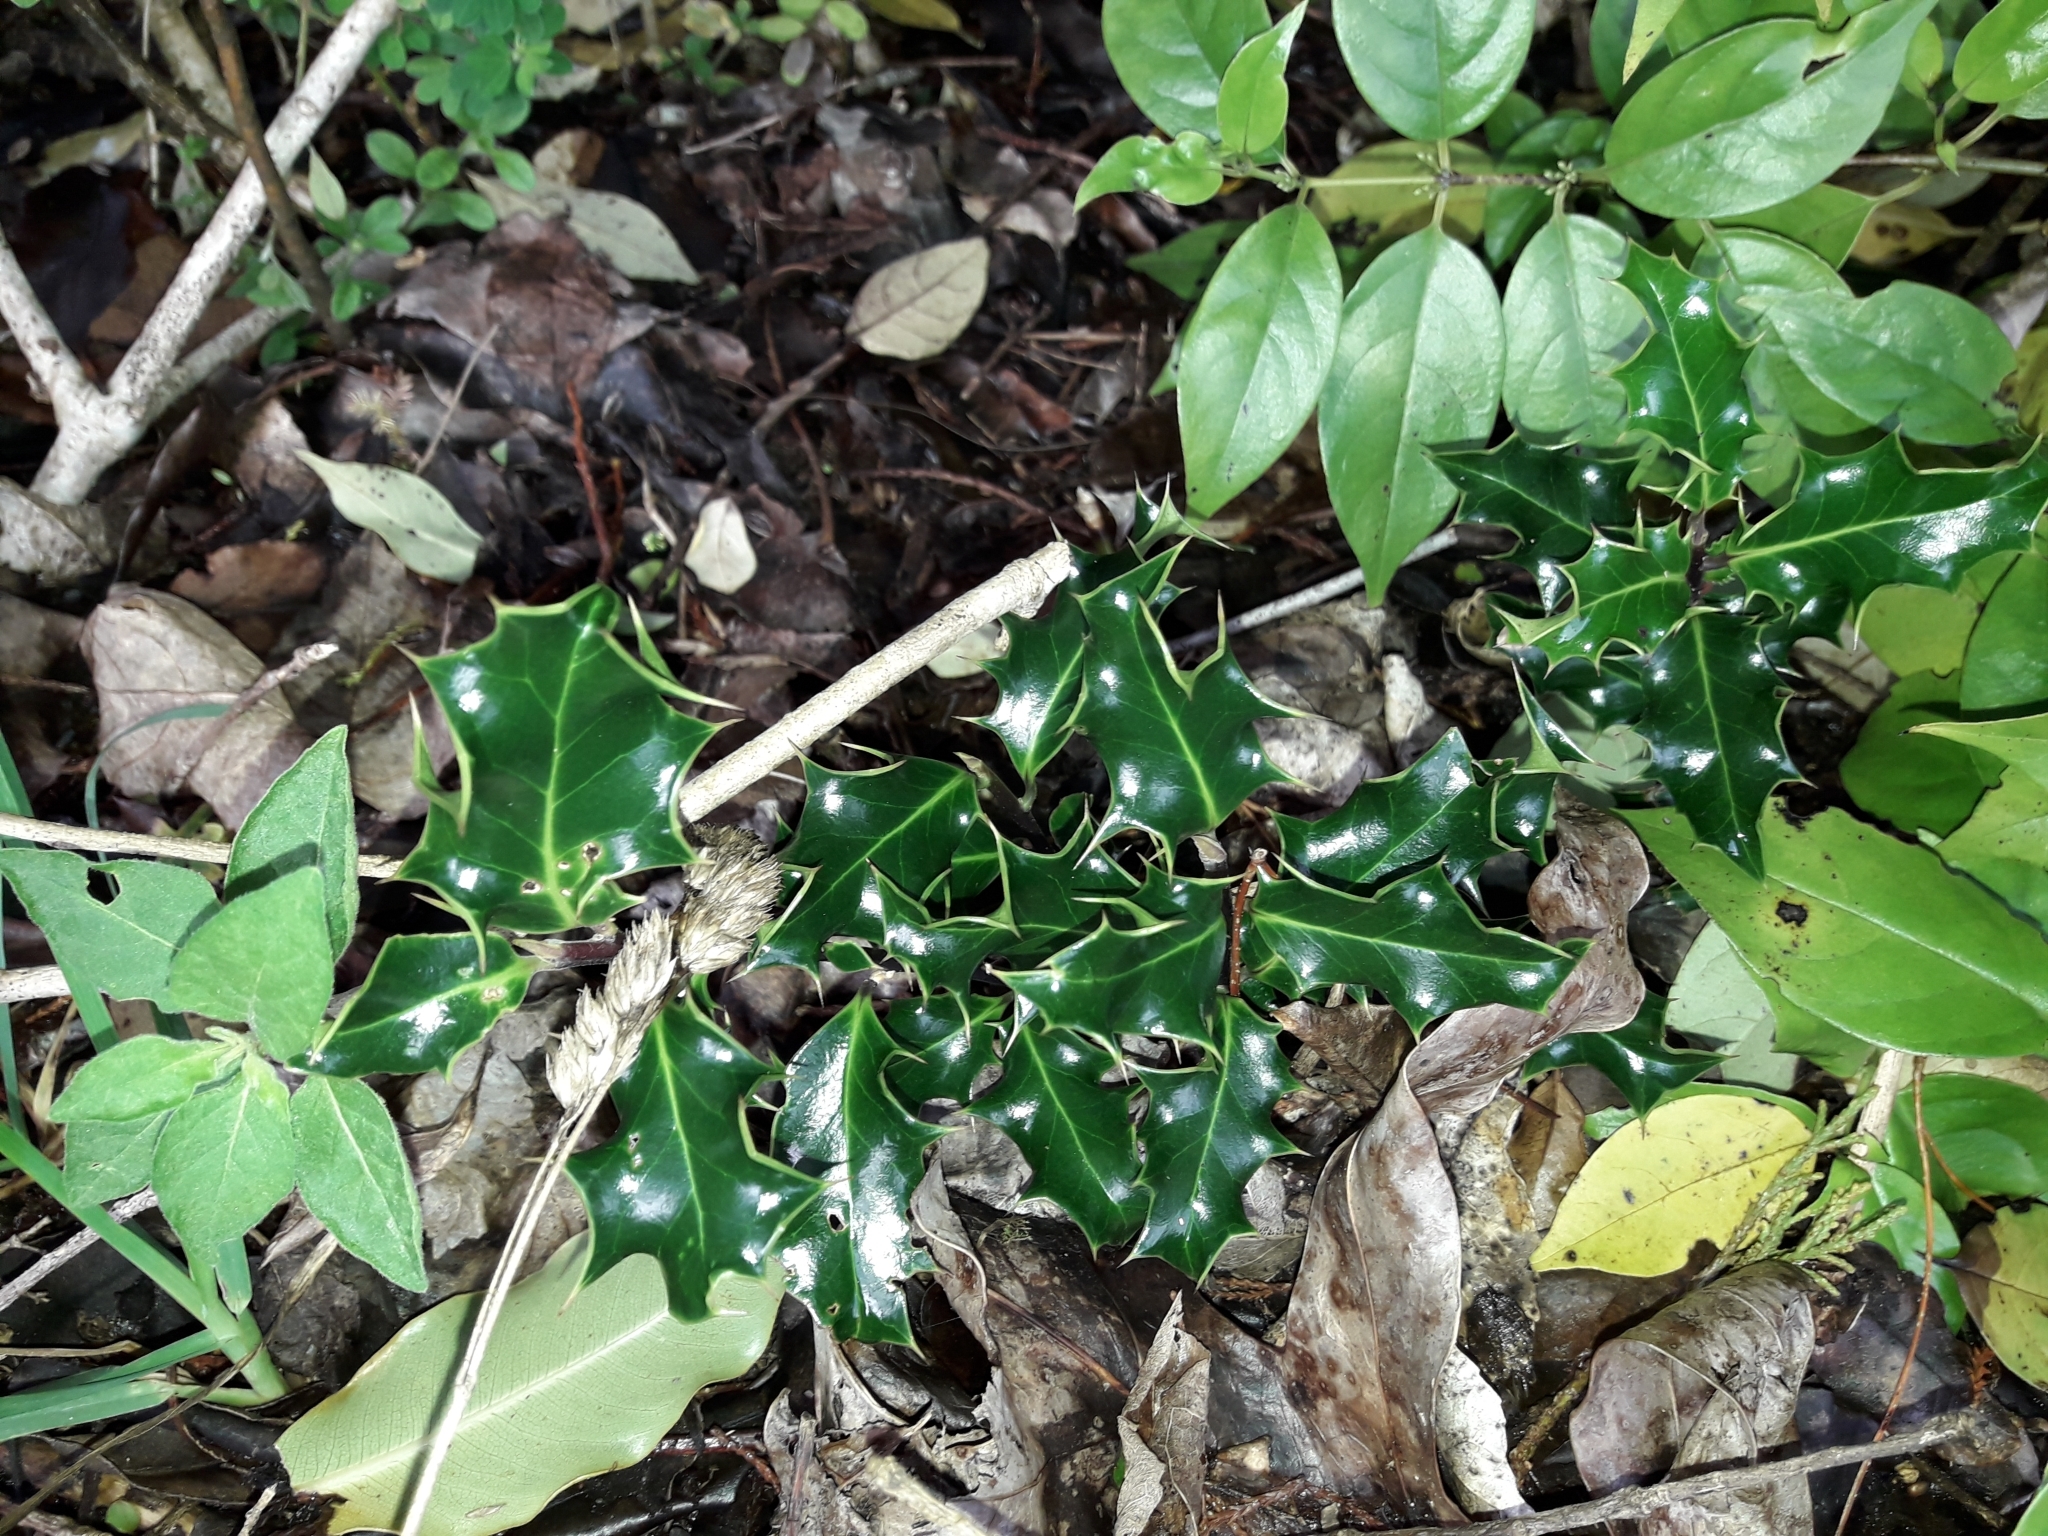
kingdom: Plantae
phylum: Tracheophyta
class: Magnoliopsida
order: Aquifoliales
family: Aquifoliaceae
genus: Ilex
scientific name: Ilex aquifolium
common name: English holly
